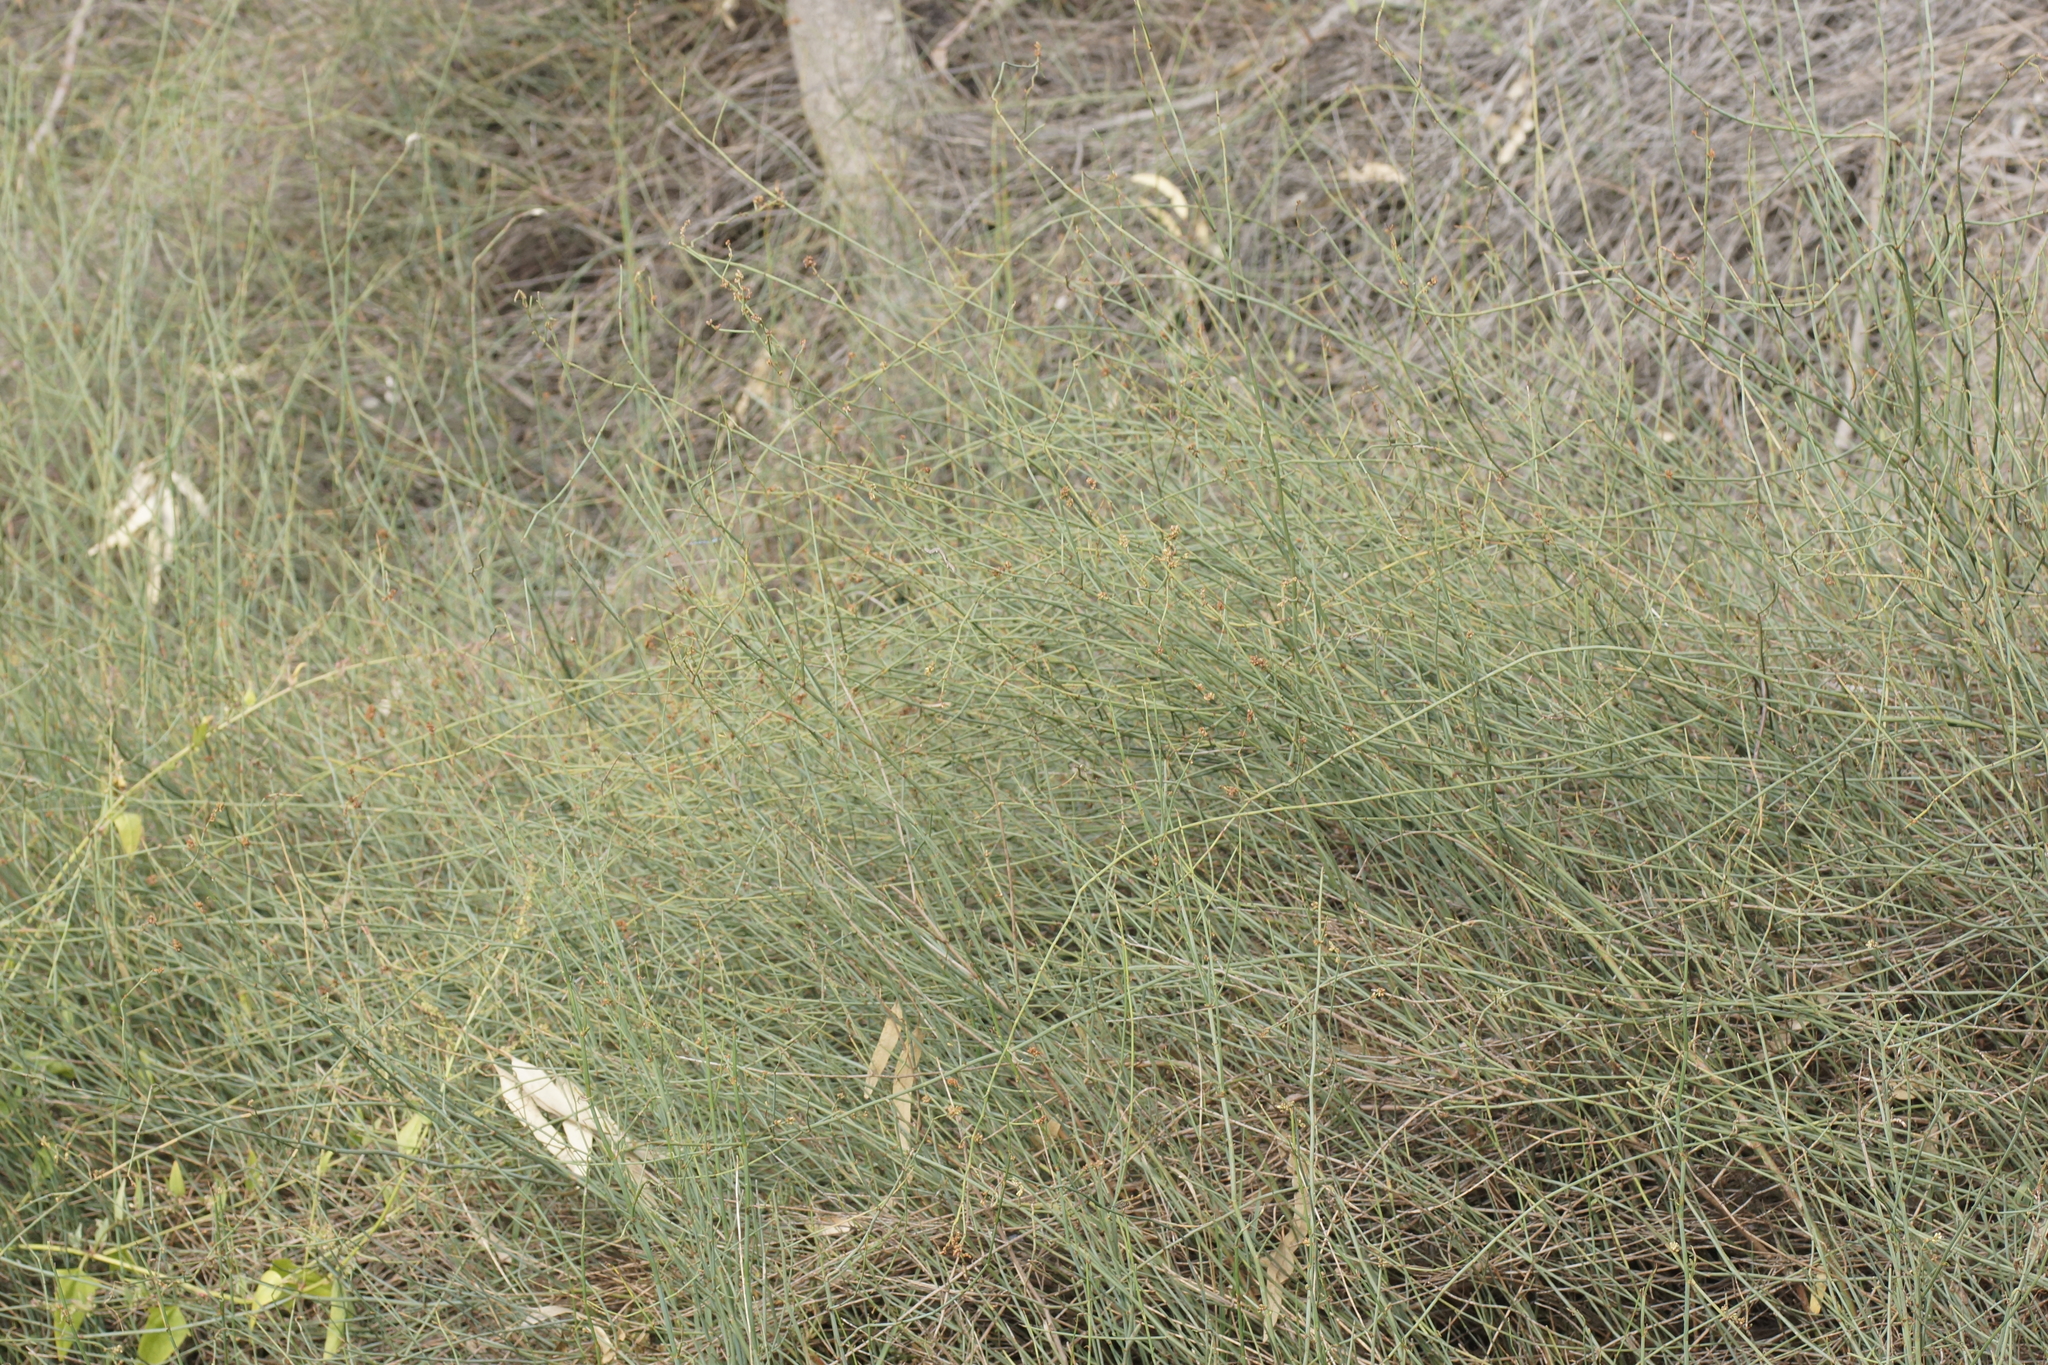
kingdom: Plantae
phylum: Tracheophyta
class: Magnoliopsida
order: Caryophyllales
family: Polygonaceae
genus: Duma
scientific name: Duma florulenta
